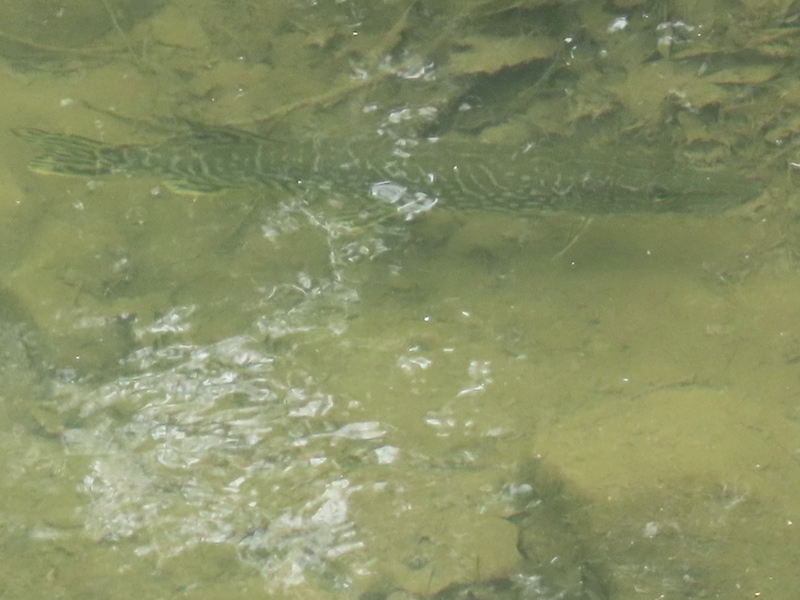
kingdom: Animalia
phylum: Chordata
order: Esociformes
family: Esocidae
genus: Esox
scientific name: Esox lucius
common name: Northern pike
